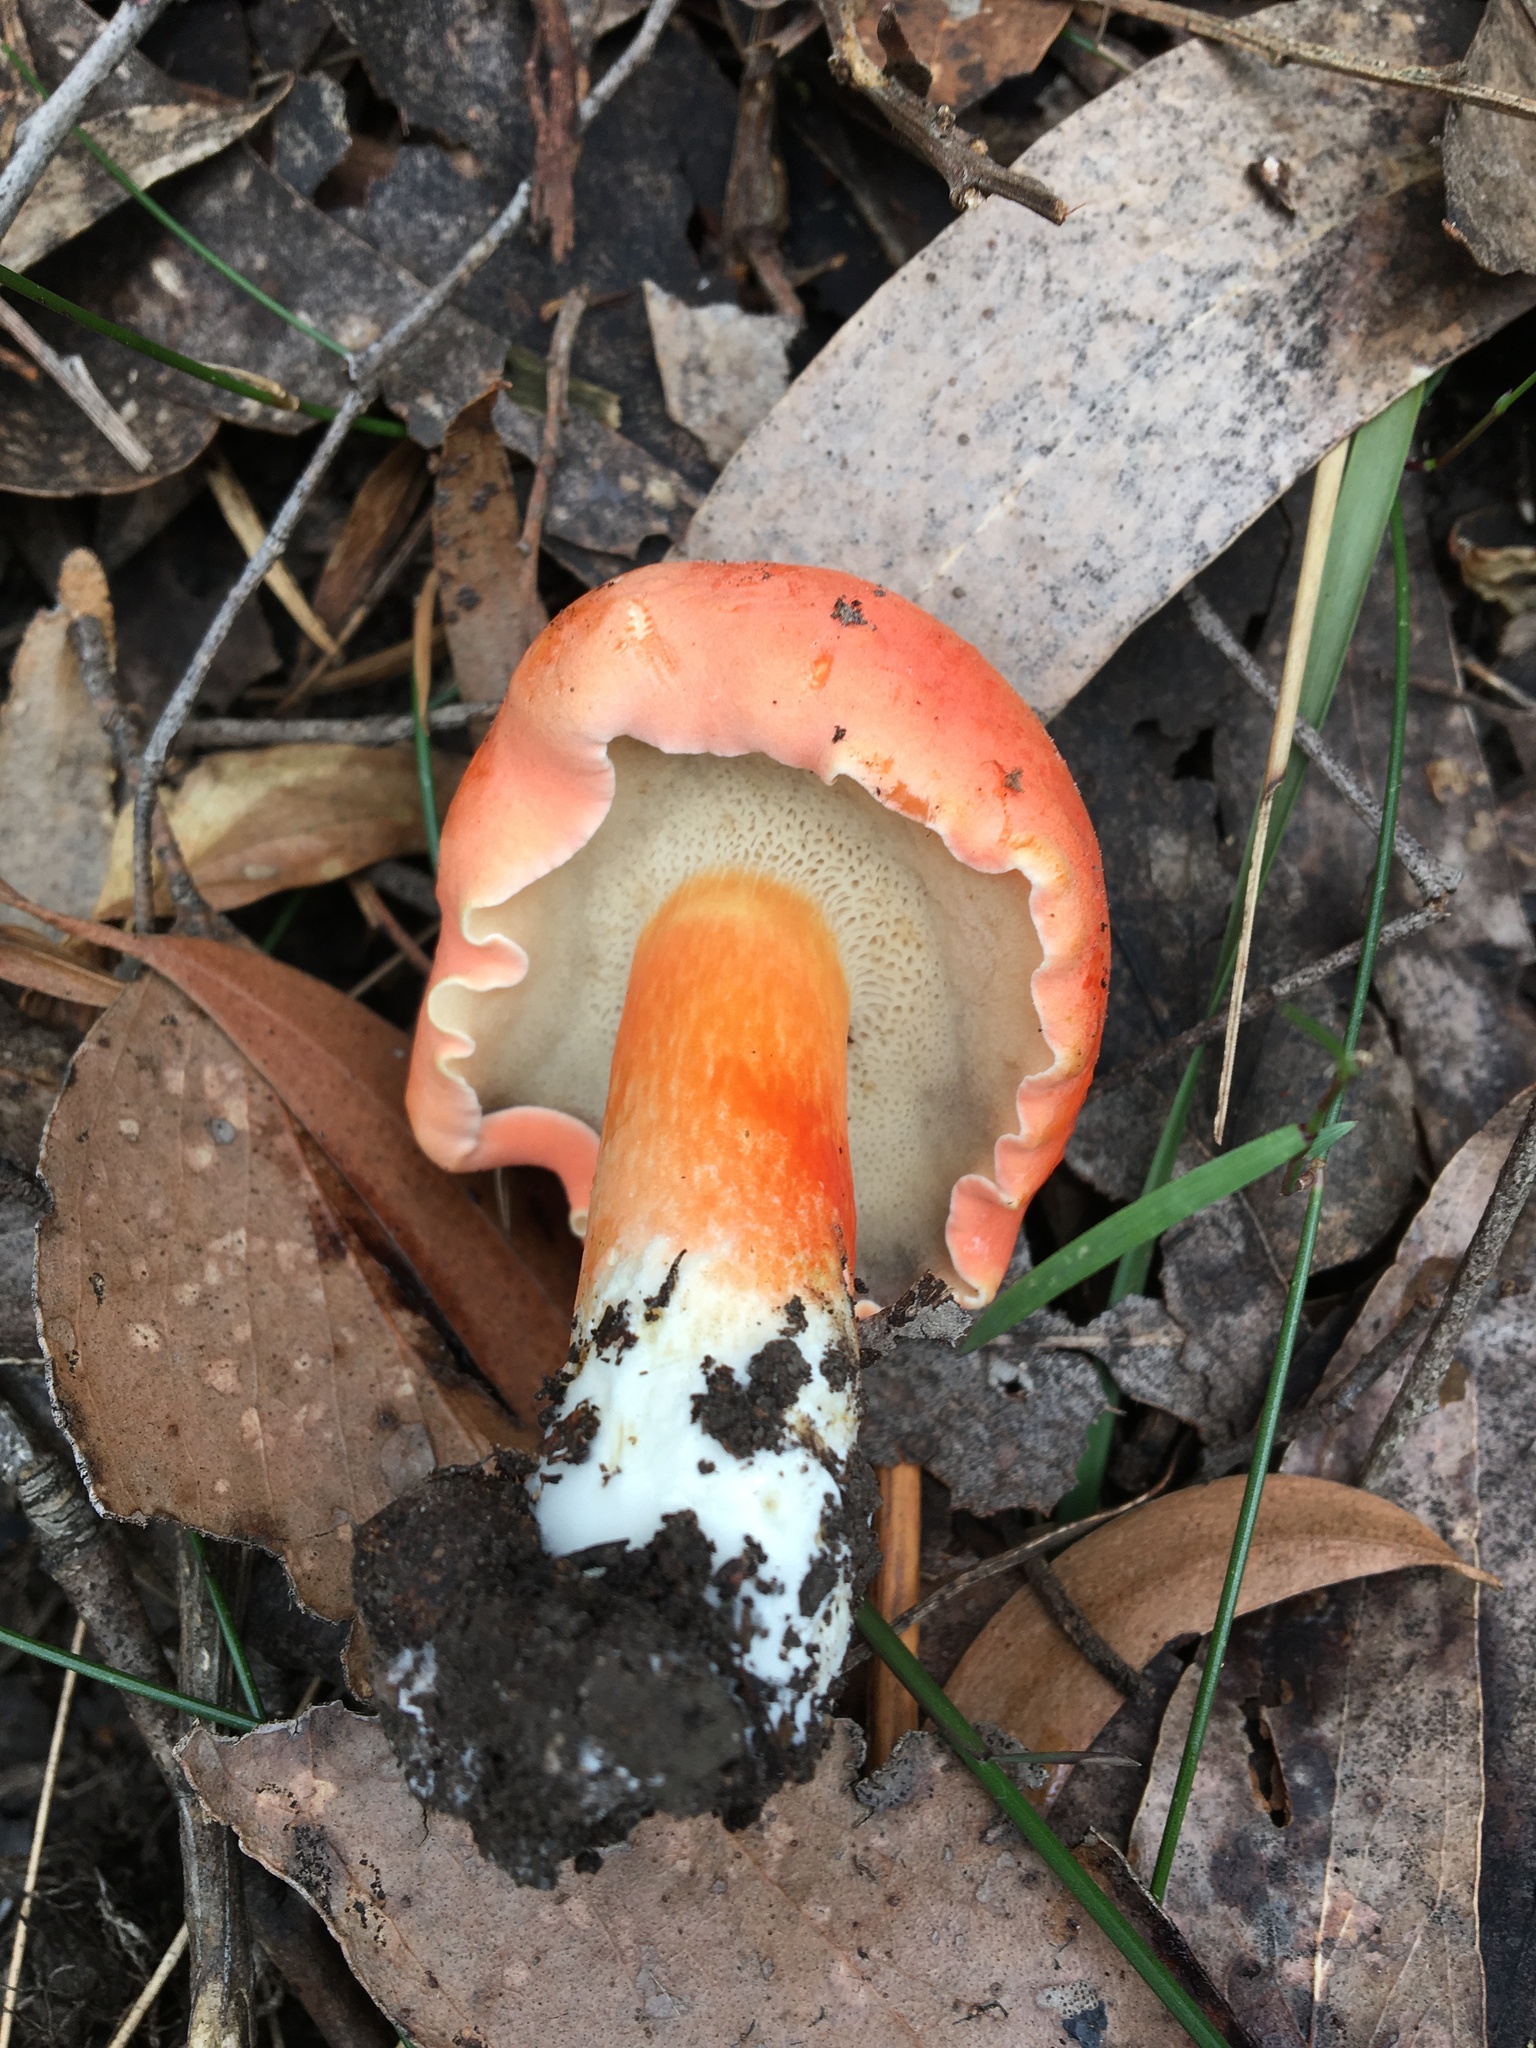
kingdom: Fungi
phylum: Basidiomycota
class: Agaricomycetes
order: Boletales
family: Boletaceae
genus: Tylopilus
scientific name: Tylopilus balloui
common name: Burnt-orange bolete
